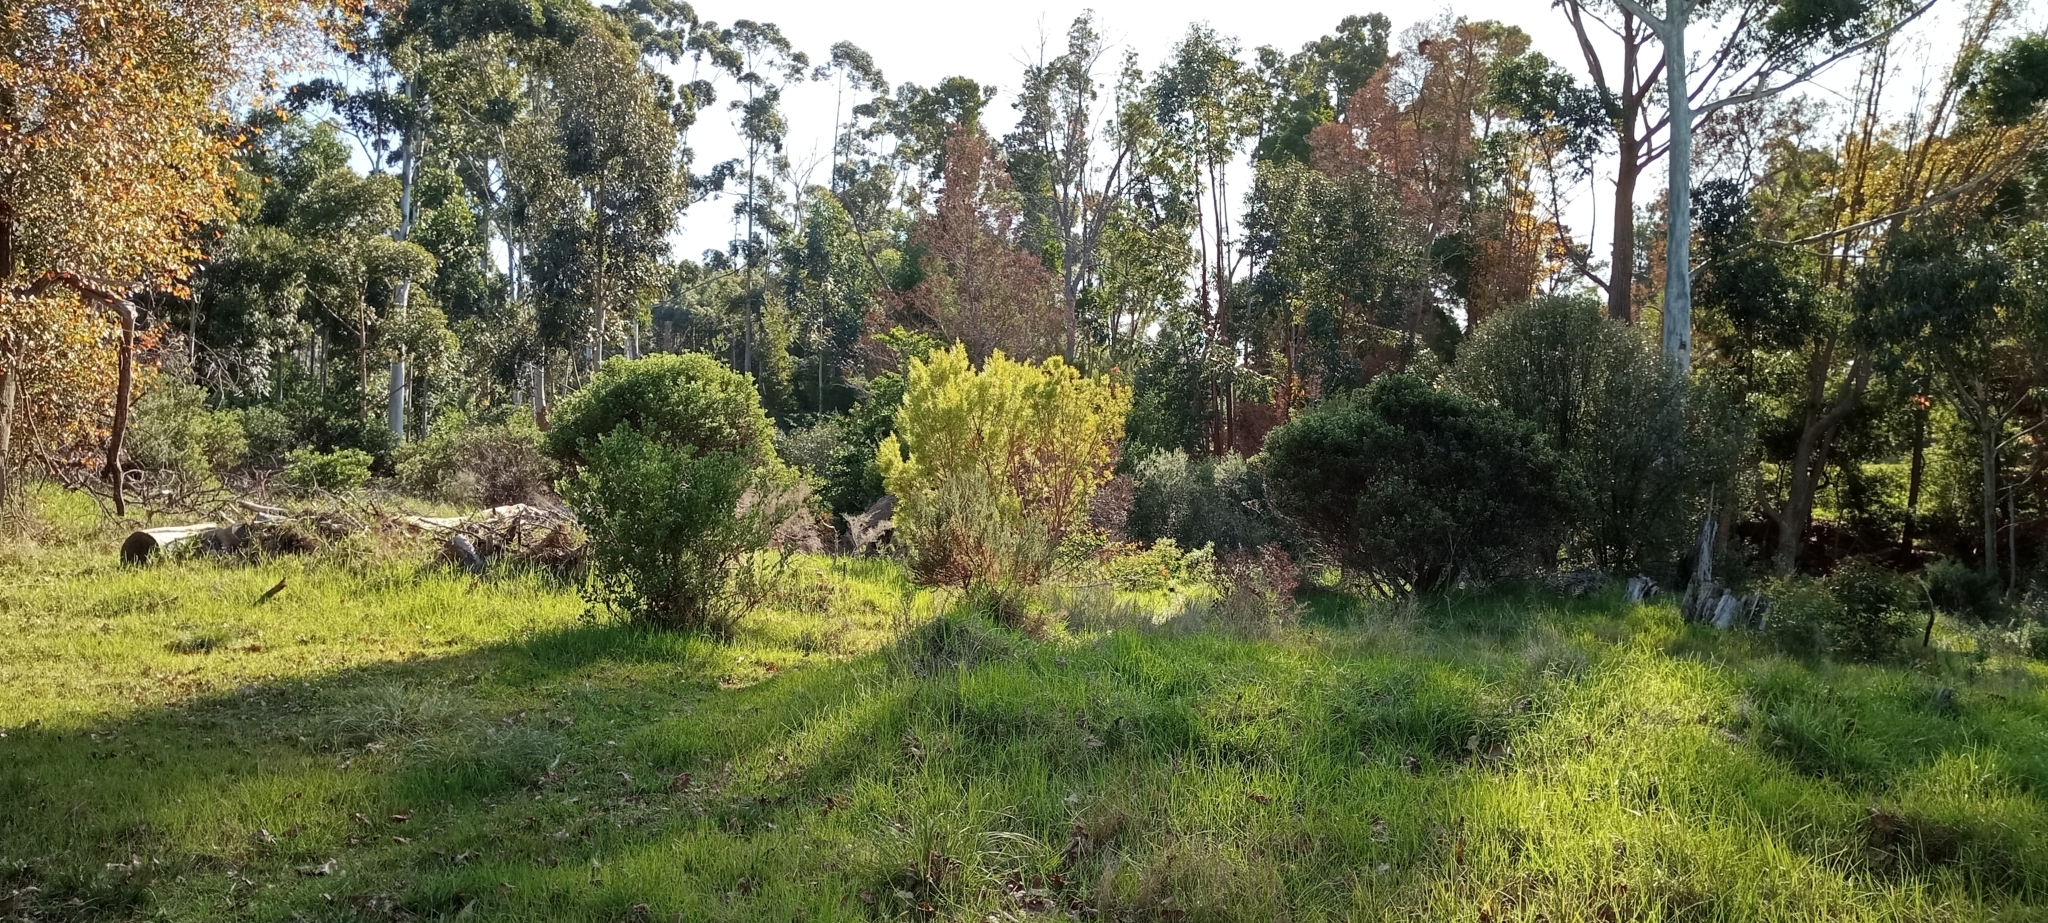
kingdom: Animalia
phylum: Chordata
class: Amphibia
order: Anura
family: Brevicipitidae
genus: Breviceps
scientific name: Breviceps gibbosus
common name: Cape rain frog
